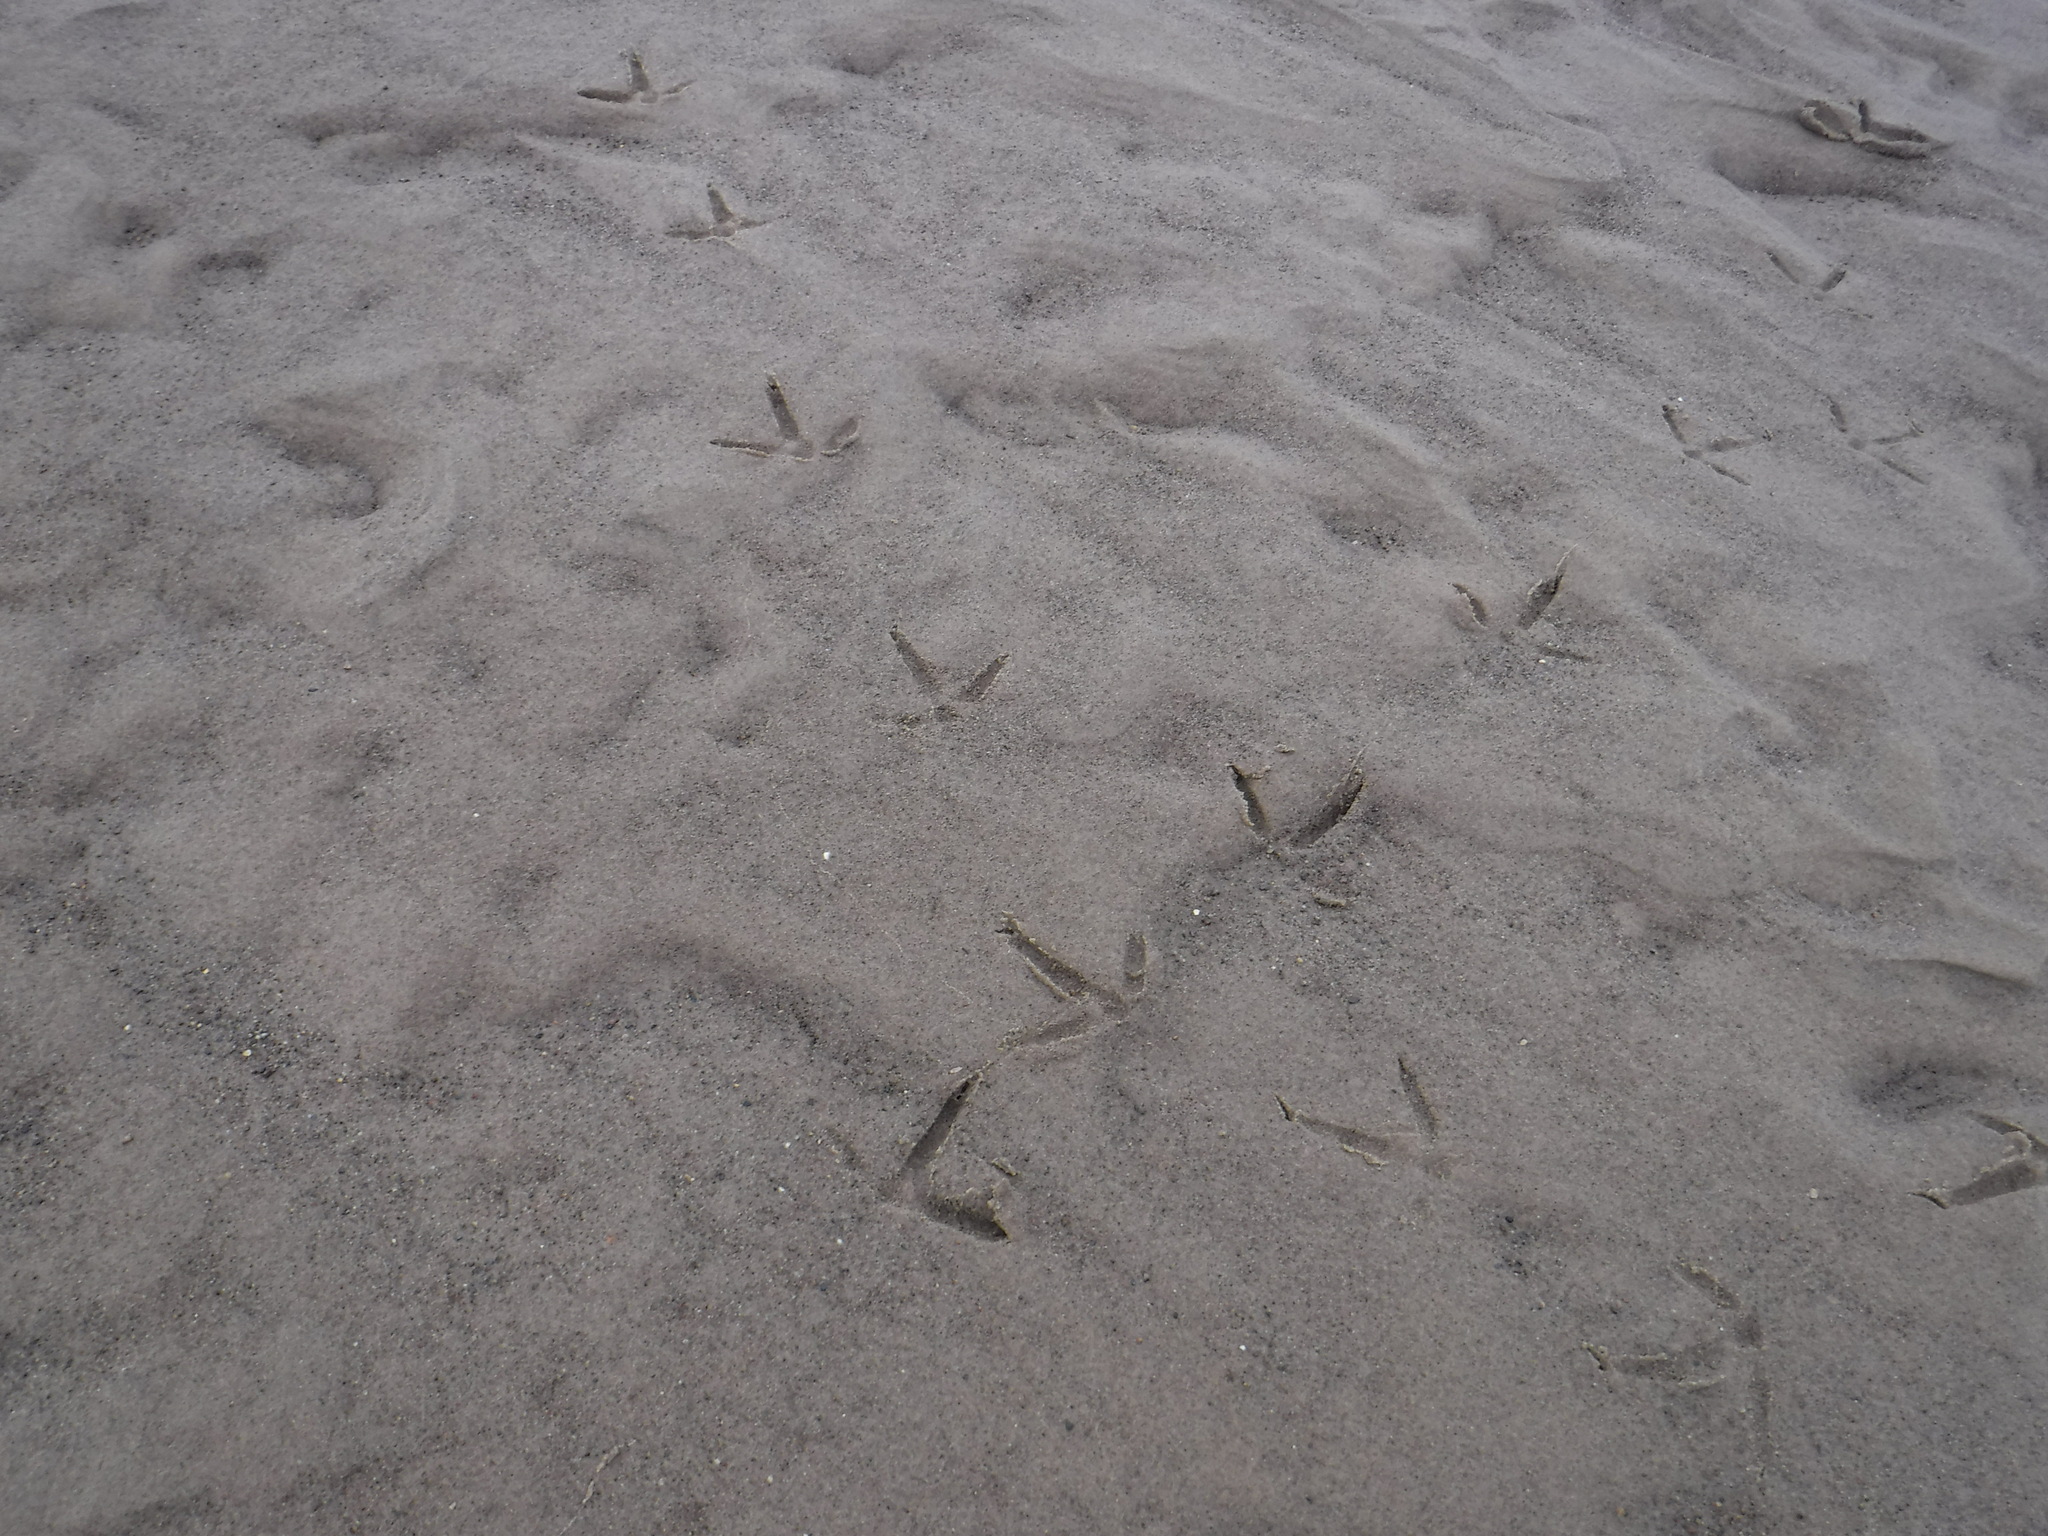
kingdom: Animalia
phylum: Chordata
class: Aves
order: Gruiformes
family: Gruidae
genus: Grus
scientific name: Grus canadensis
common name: Sandhill crane
